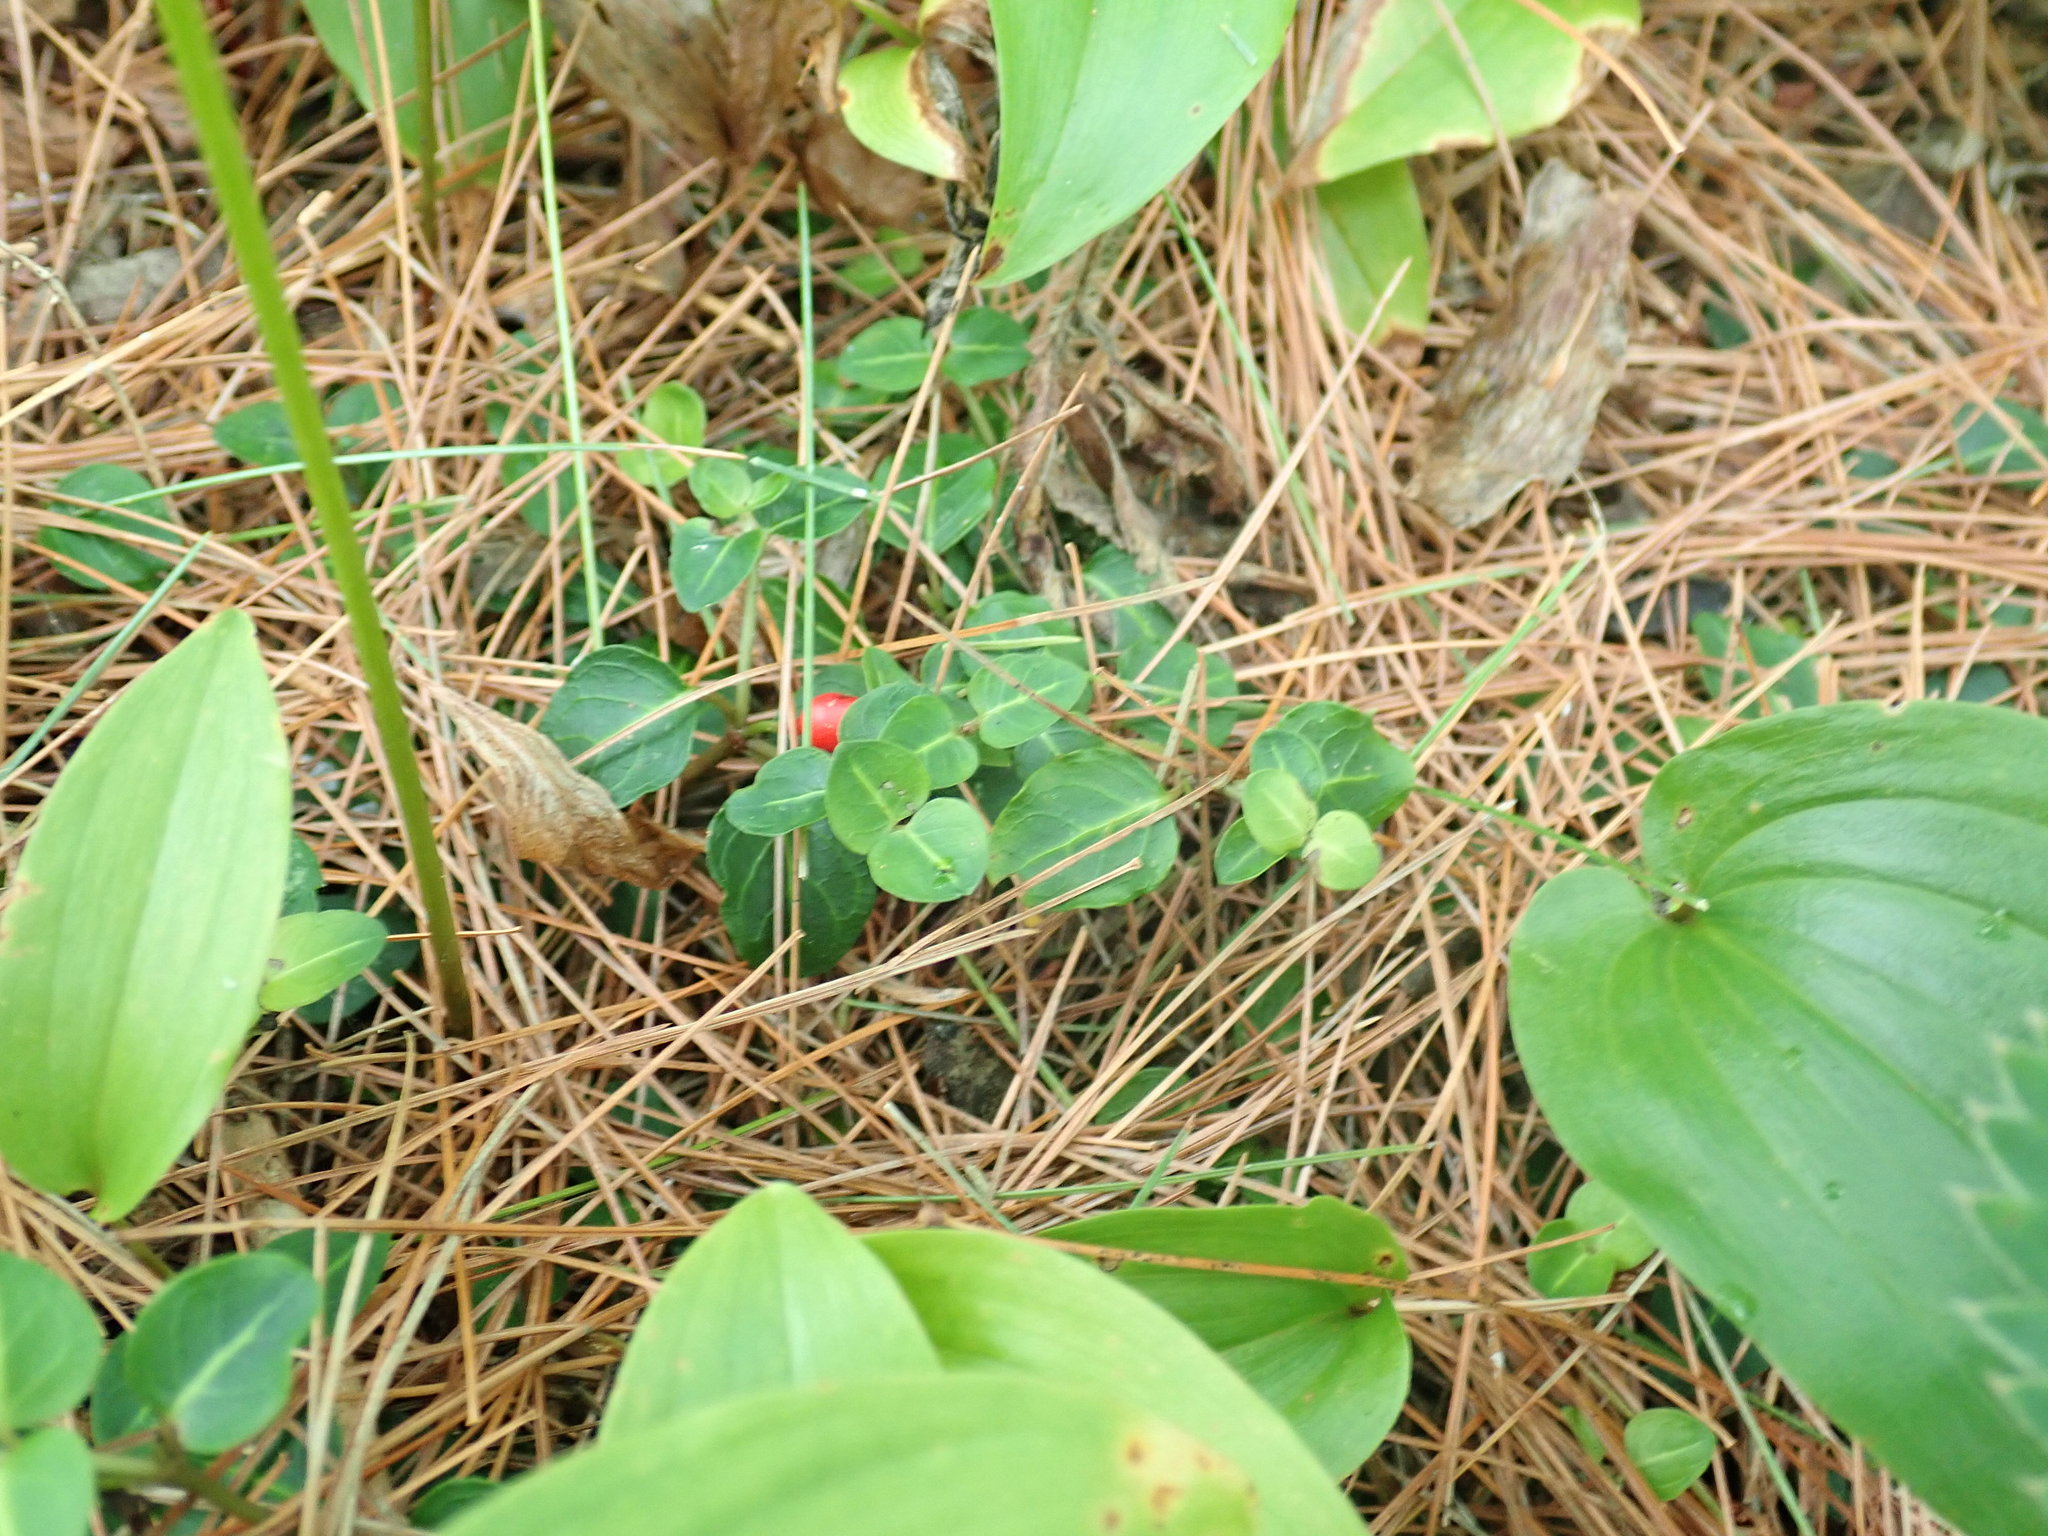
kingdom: Plantae
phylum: Tracheophyta
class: Magnoliopsida
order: Gentianales
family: Rubiaceae
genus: Mitchella
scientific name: Mitchella repens
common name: Partridge-berry
